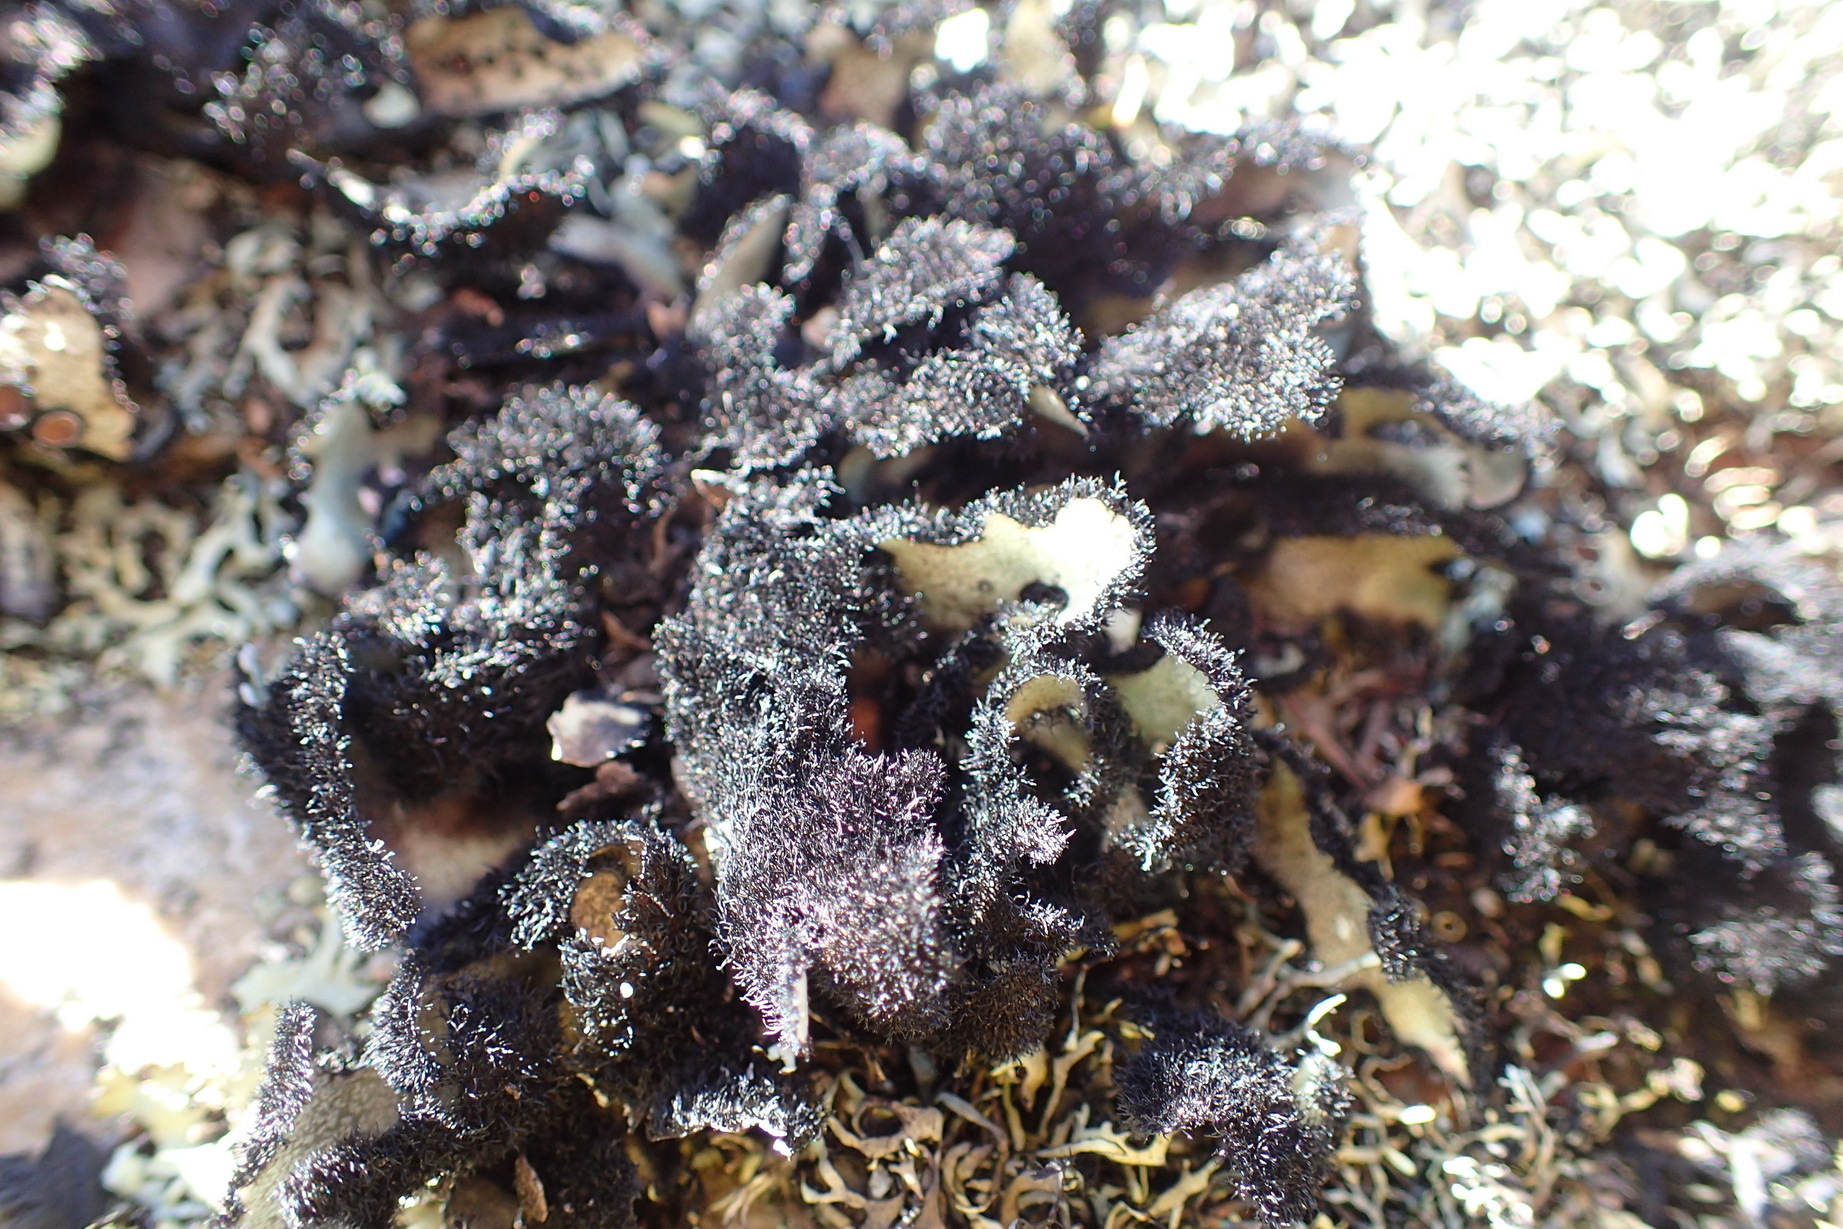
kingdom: Fungi
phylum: Ascomycota
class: Lecanoromycetes
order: Lecanorales
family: Parmeliaceae
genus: Xanthoparmelia
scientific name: Xanthoparmelia hottentotta
